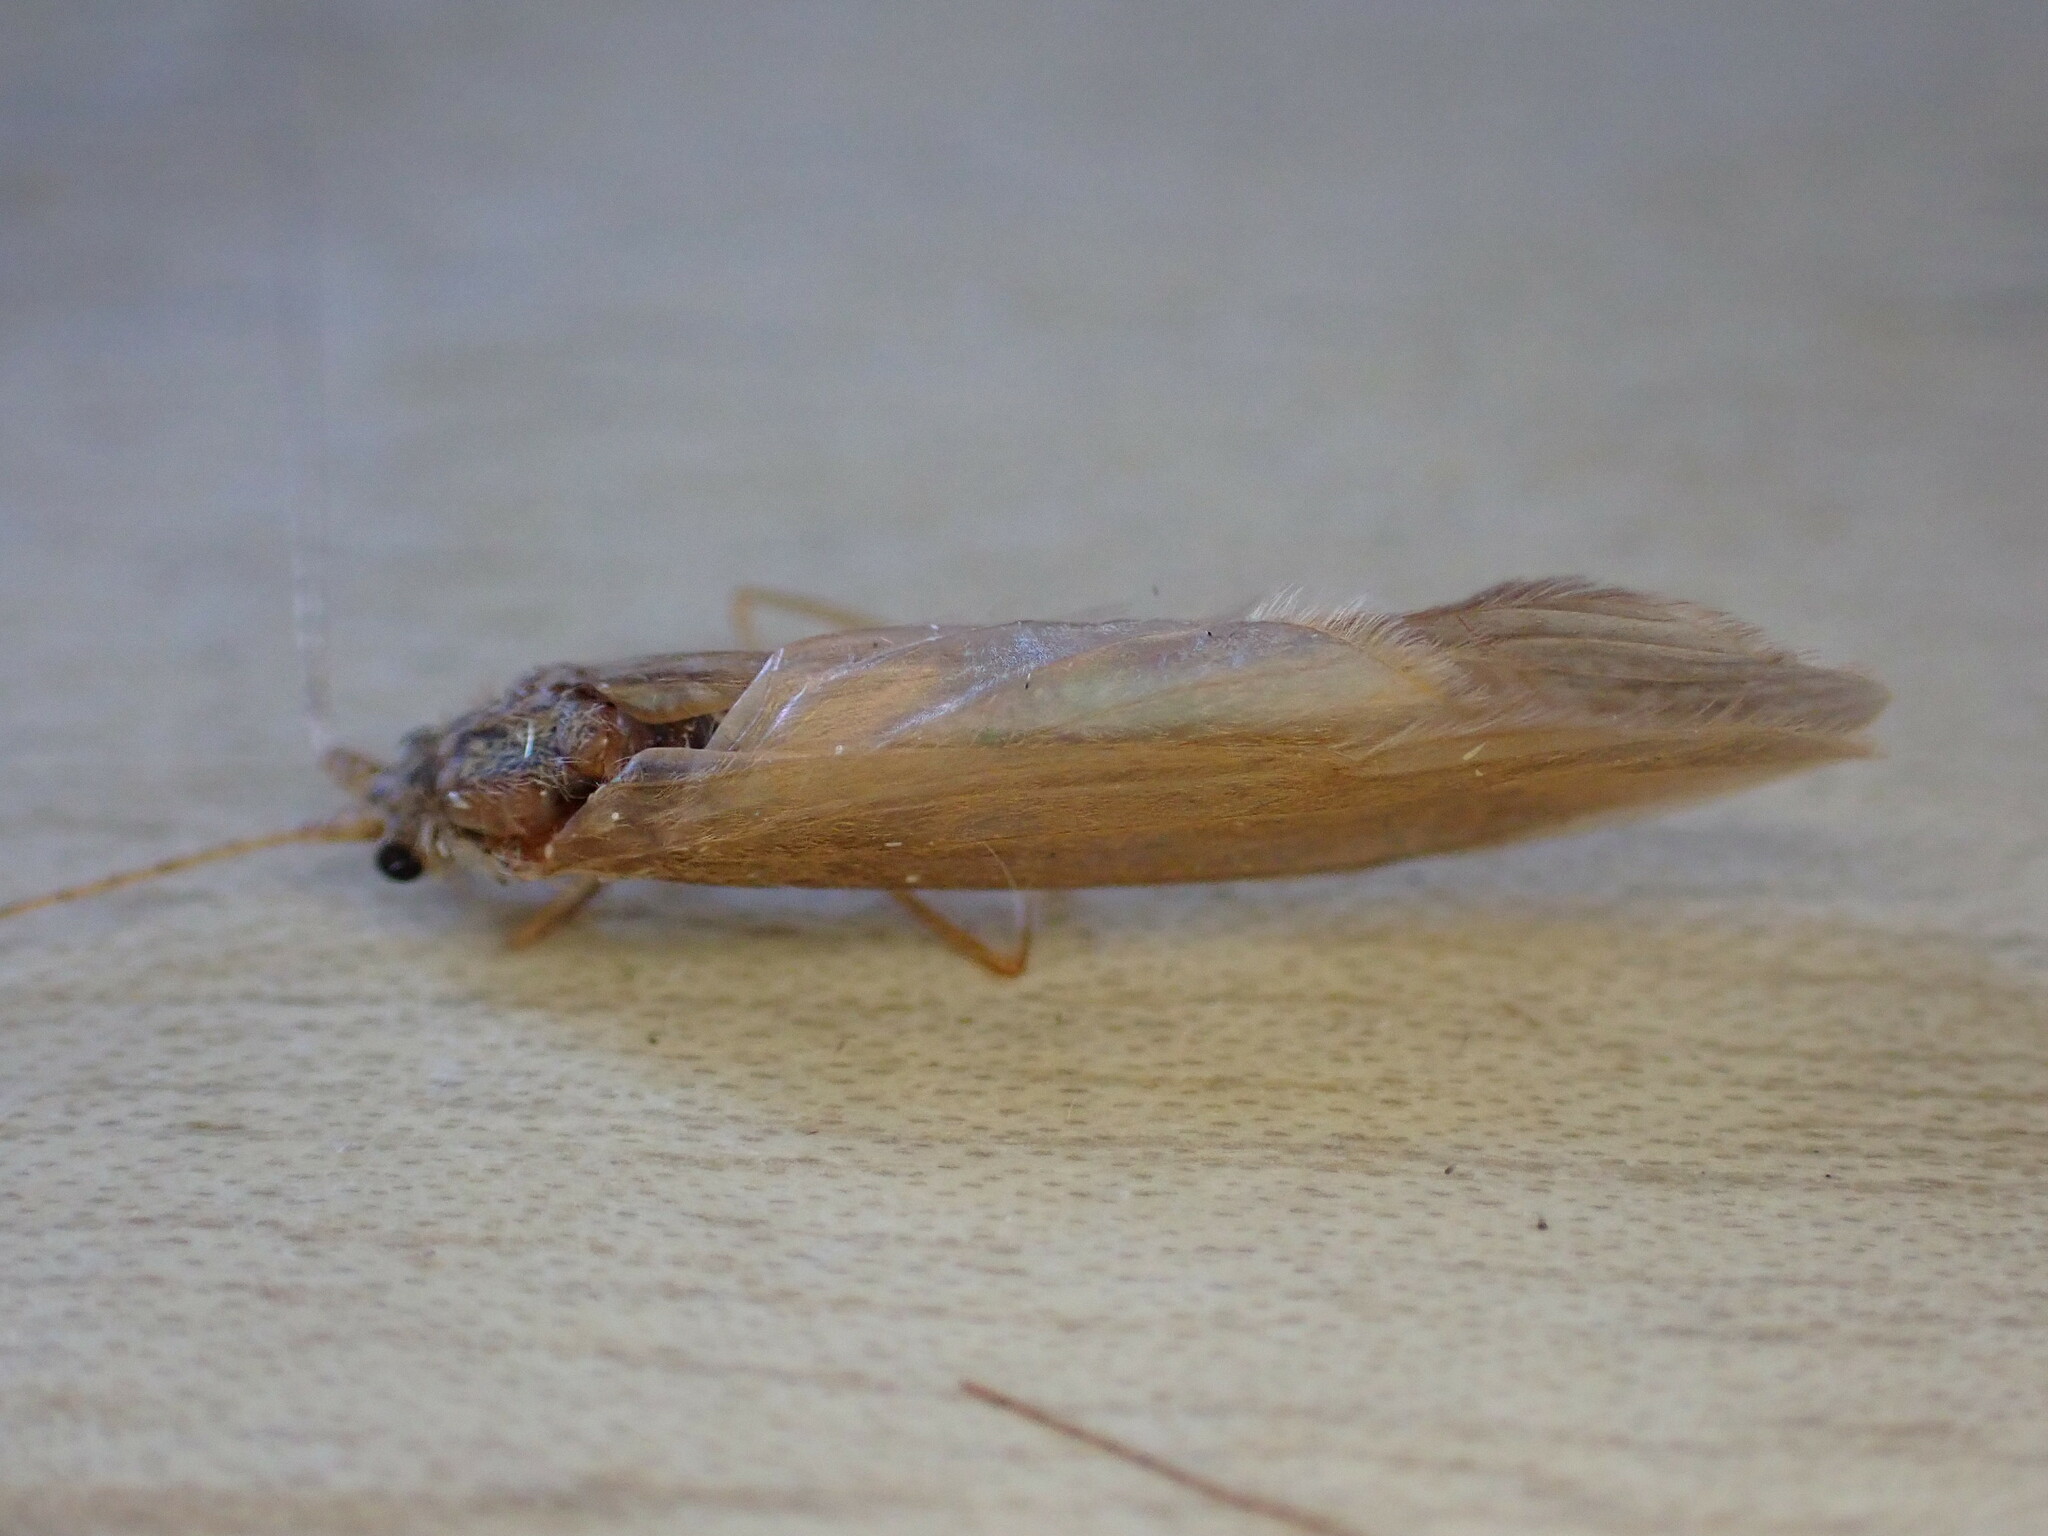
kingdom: Animalia
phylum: Arthropoda
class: Insecta
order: Trichoptera
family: Leptoceridae
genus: Oecetis
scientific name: Oecetis ochracea
